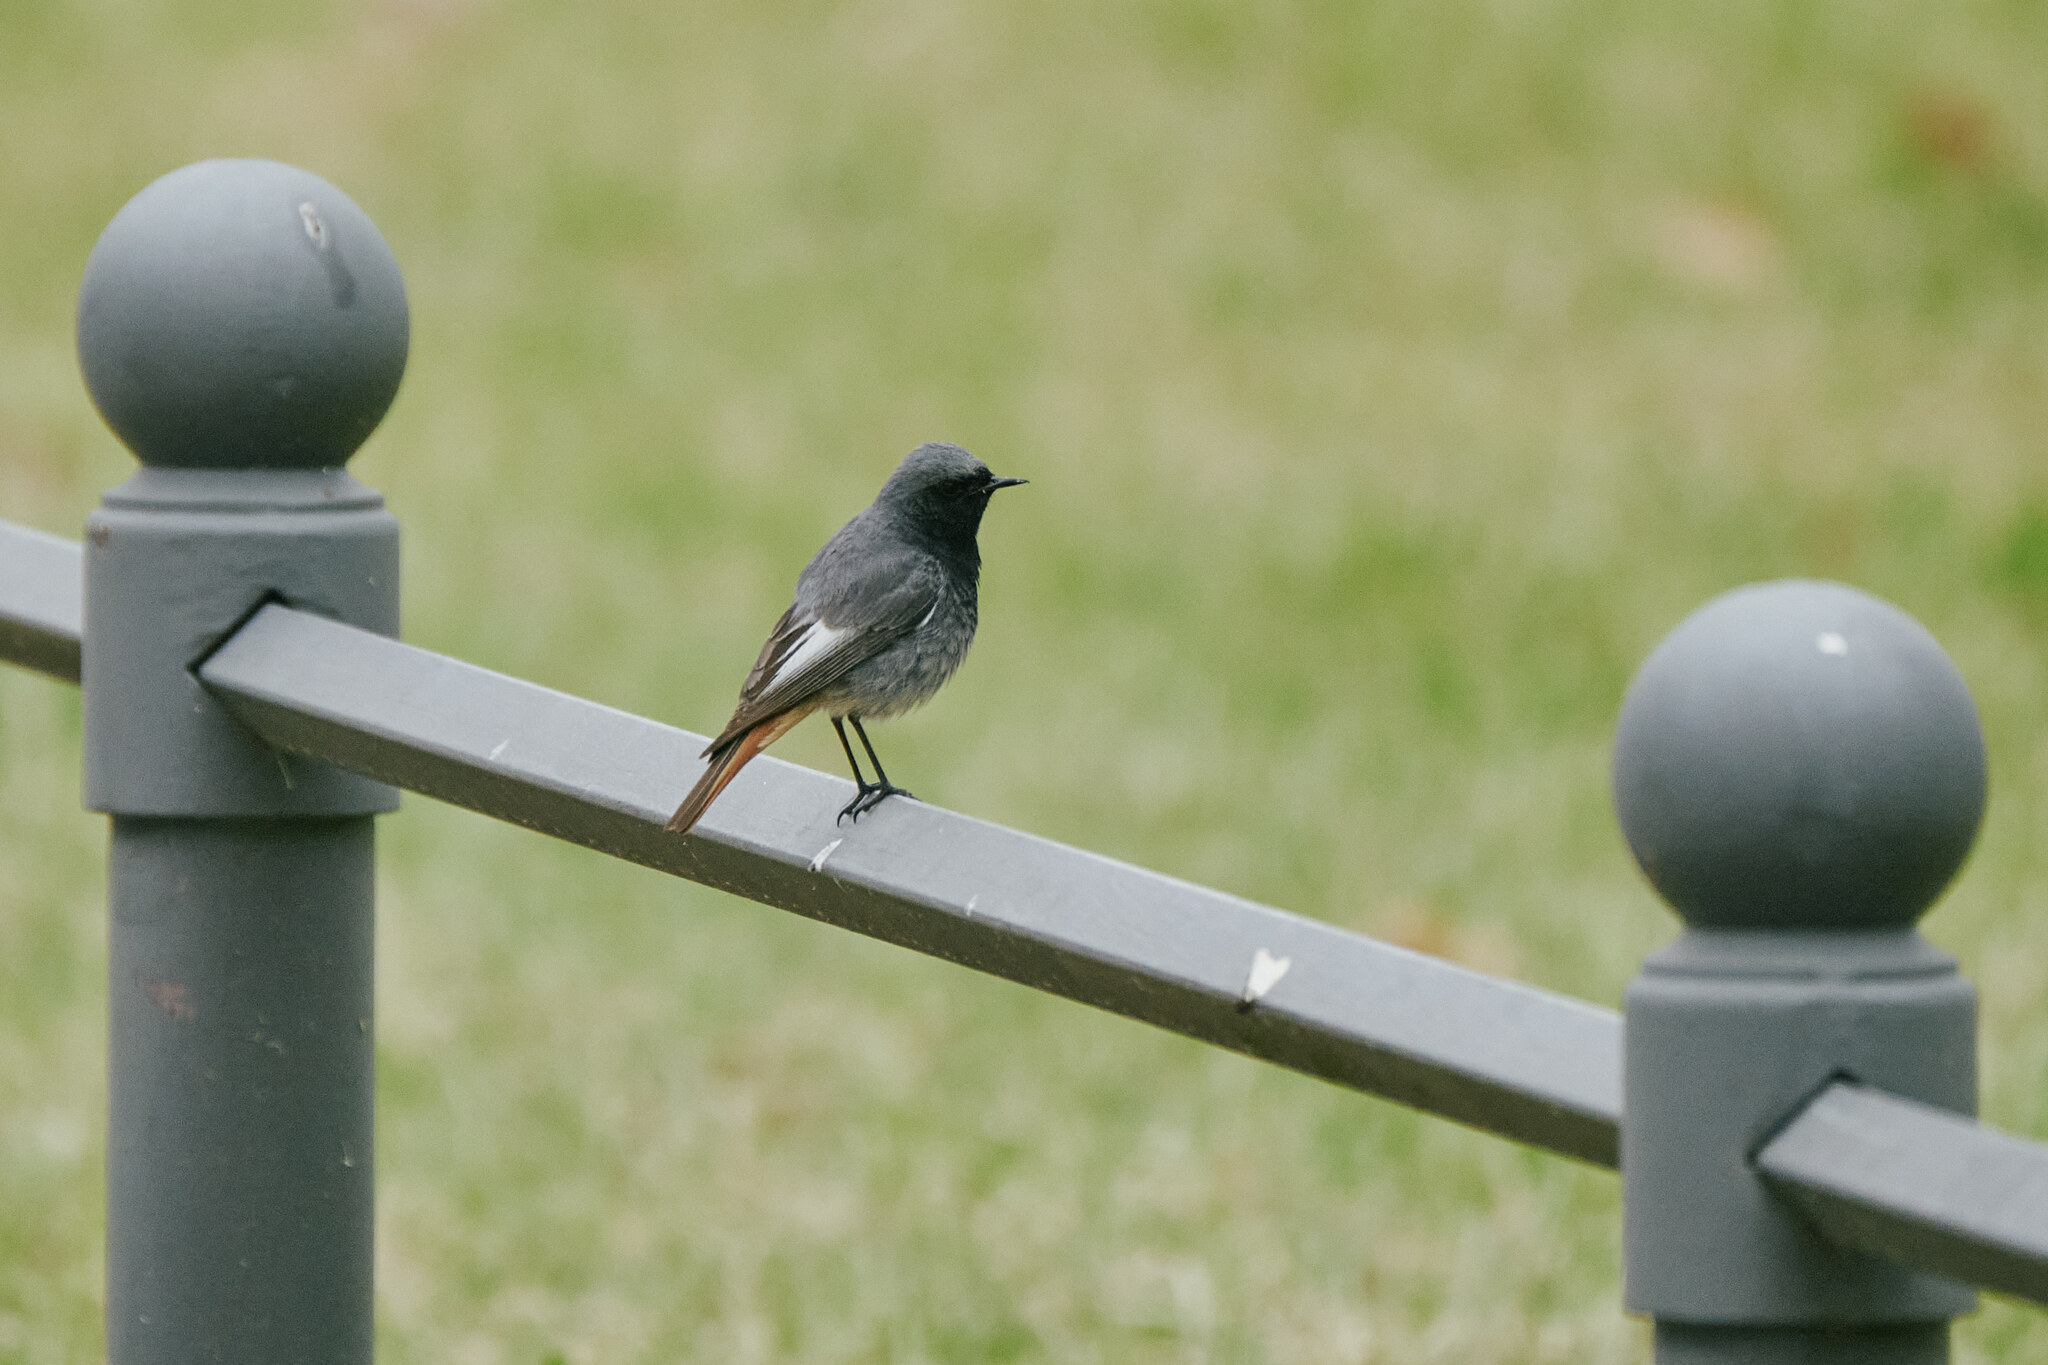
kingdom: Animalia
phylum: Chordata
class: Aves
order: Passeriformes
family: Muscicapidae
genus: Phoenicurus
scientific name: Phoenicurus ochruros
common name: Black redstart
